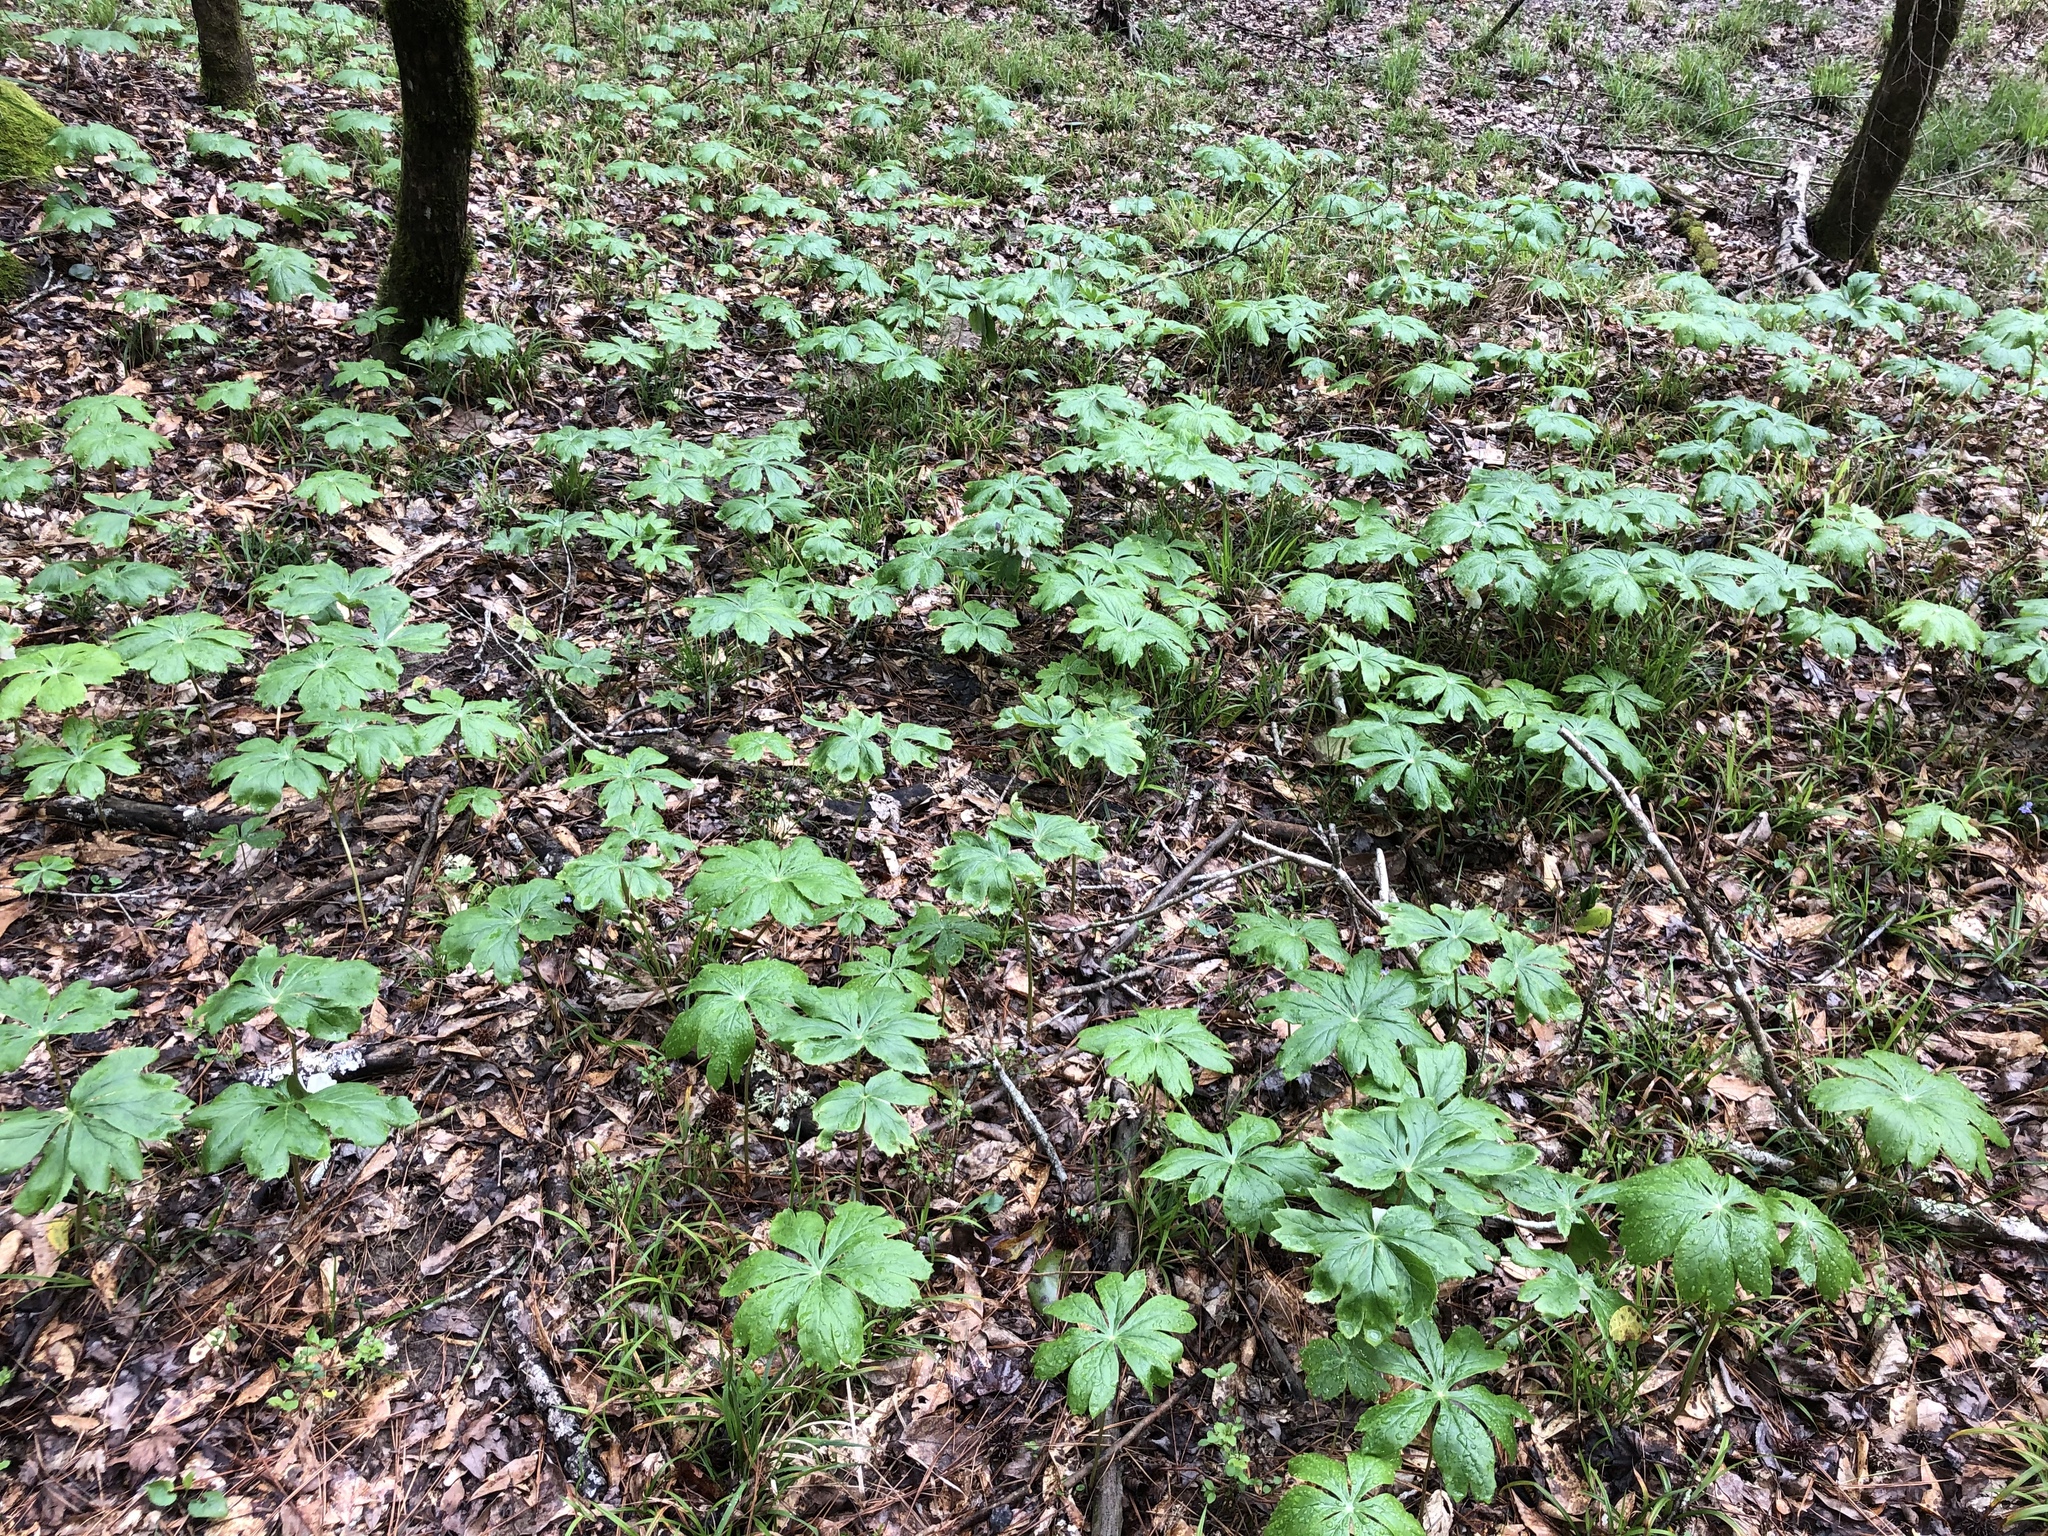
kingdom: Plantae
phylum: Tracheophyta
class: Magnoliopsida
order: Ranunculales
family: Berberidaceae
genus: Podophyllum
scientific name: Podophyllum peltatum
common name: Wild mandrake
